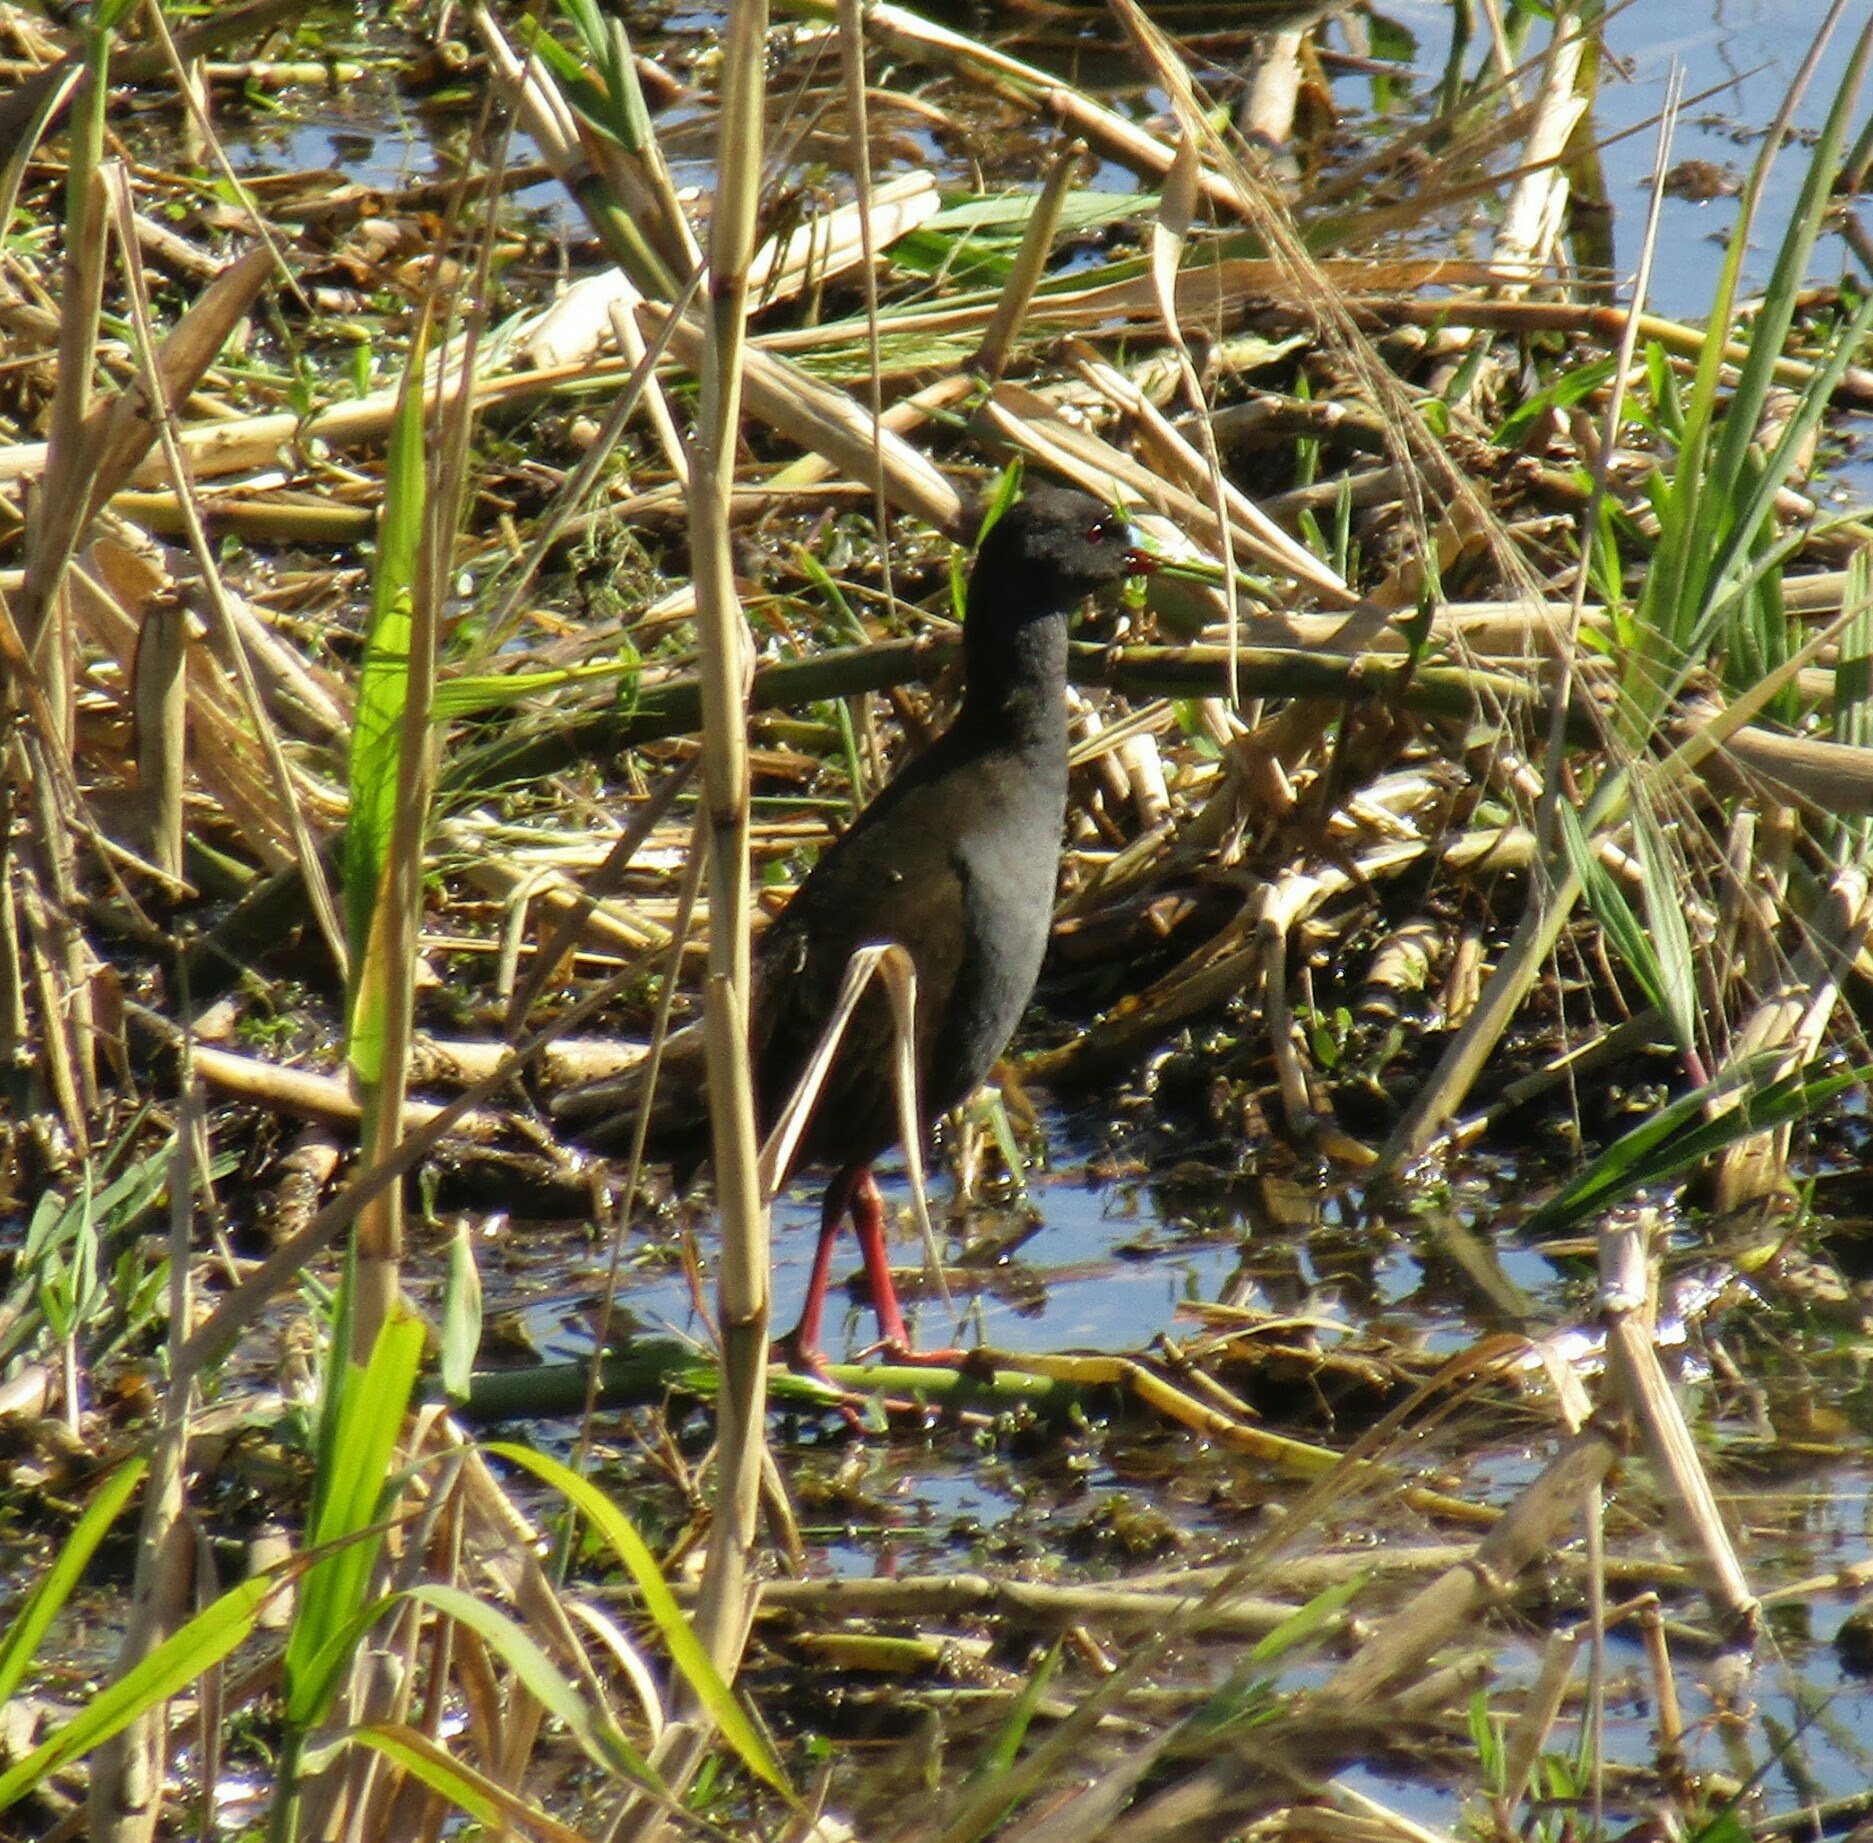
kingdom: Animalia
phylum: Chordata
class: Aves
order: Gruiformes
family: Rallidae
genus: Pardirallus
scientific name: Pardirallus sanguinolentus
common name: Plumbeous rail
